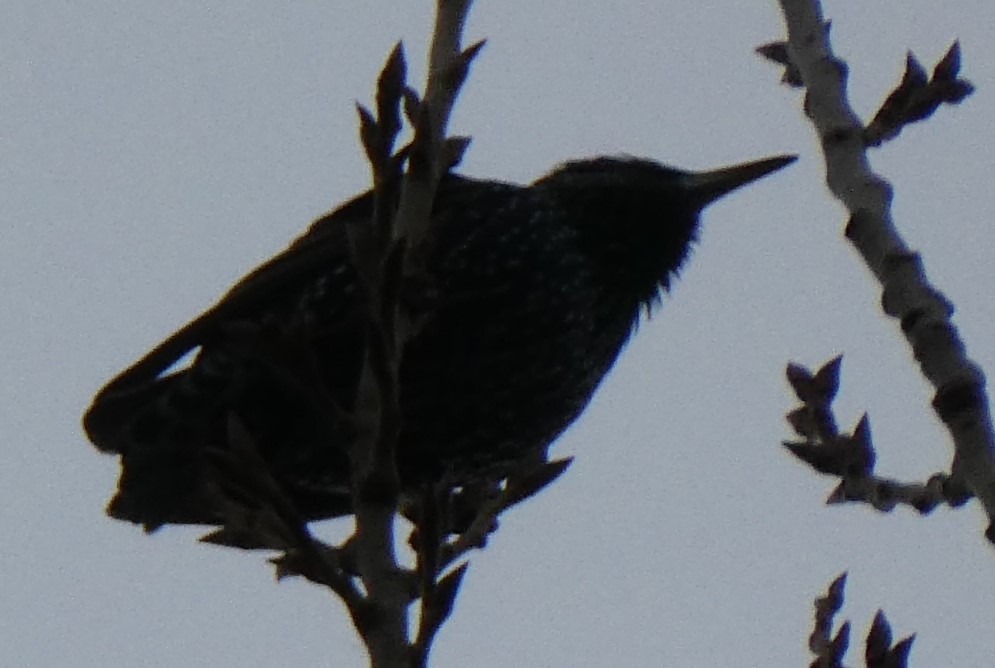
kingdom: Animalia
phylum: Chordata
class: Aves
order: Passeriformes
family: Sturnidae
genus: Sturnus
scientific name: Sturnus vulgaris
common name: Common starling
